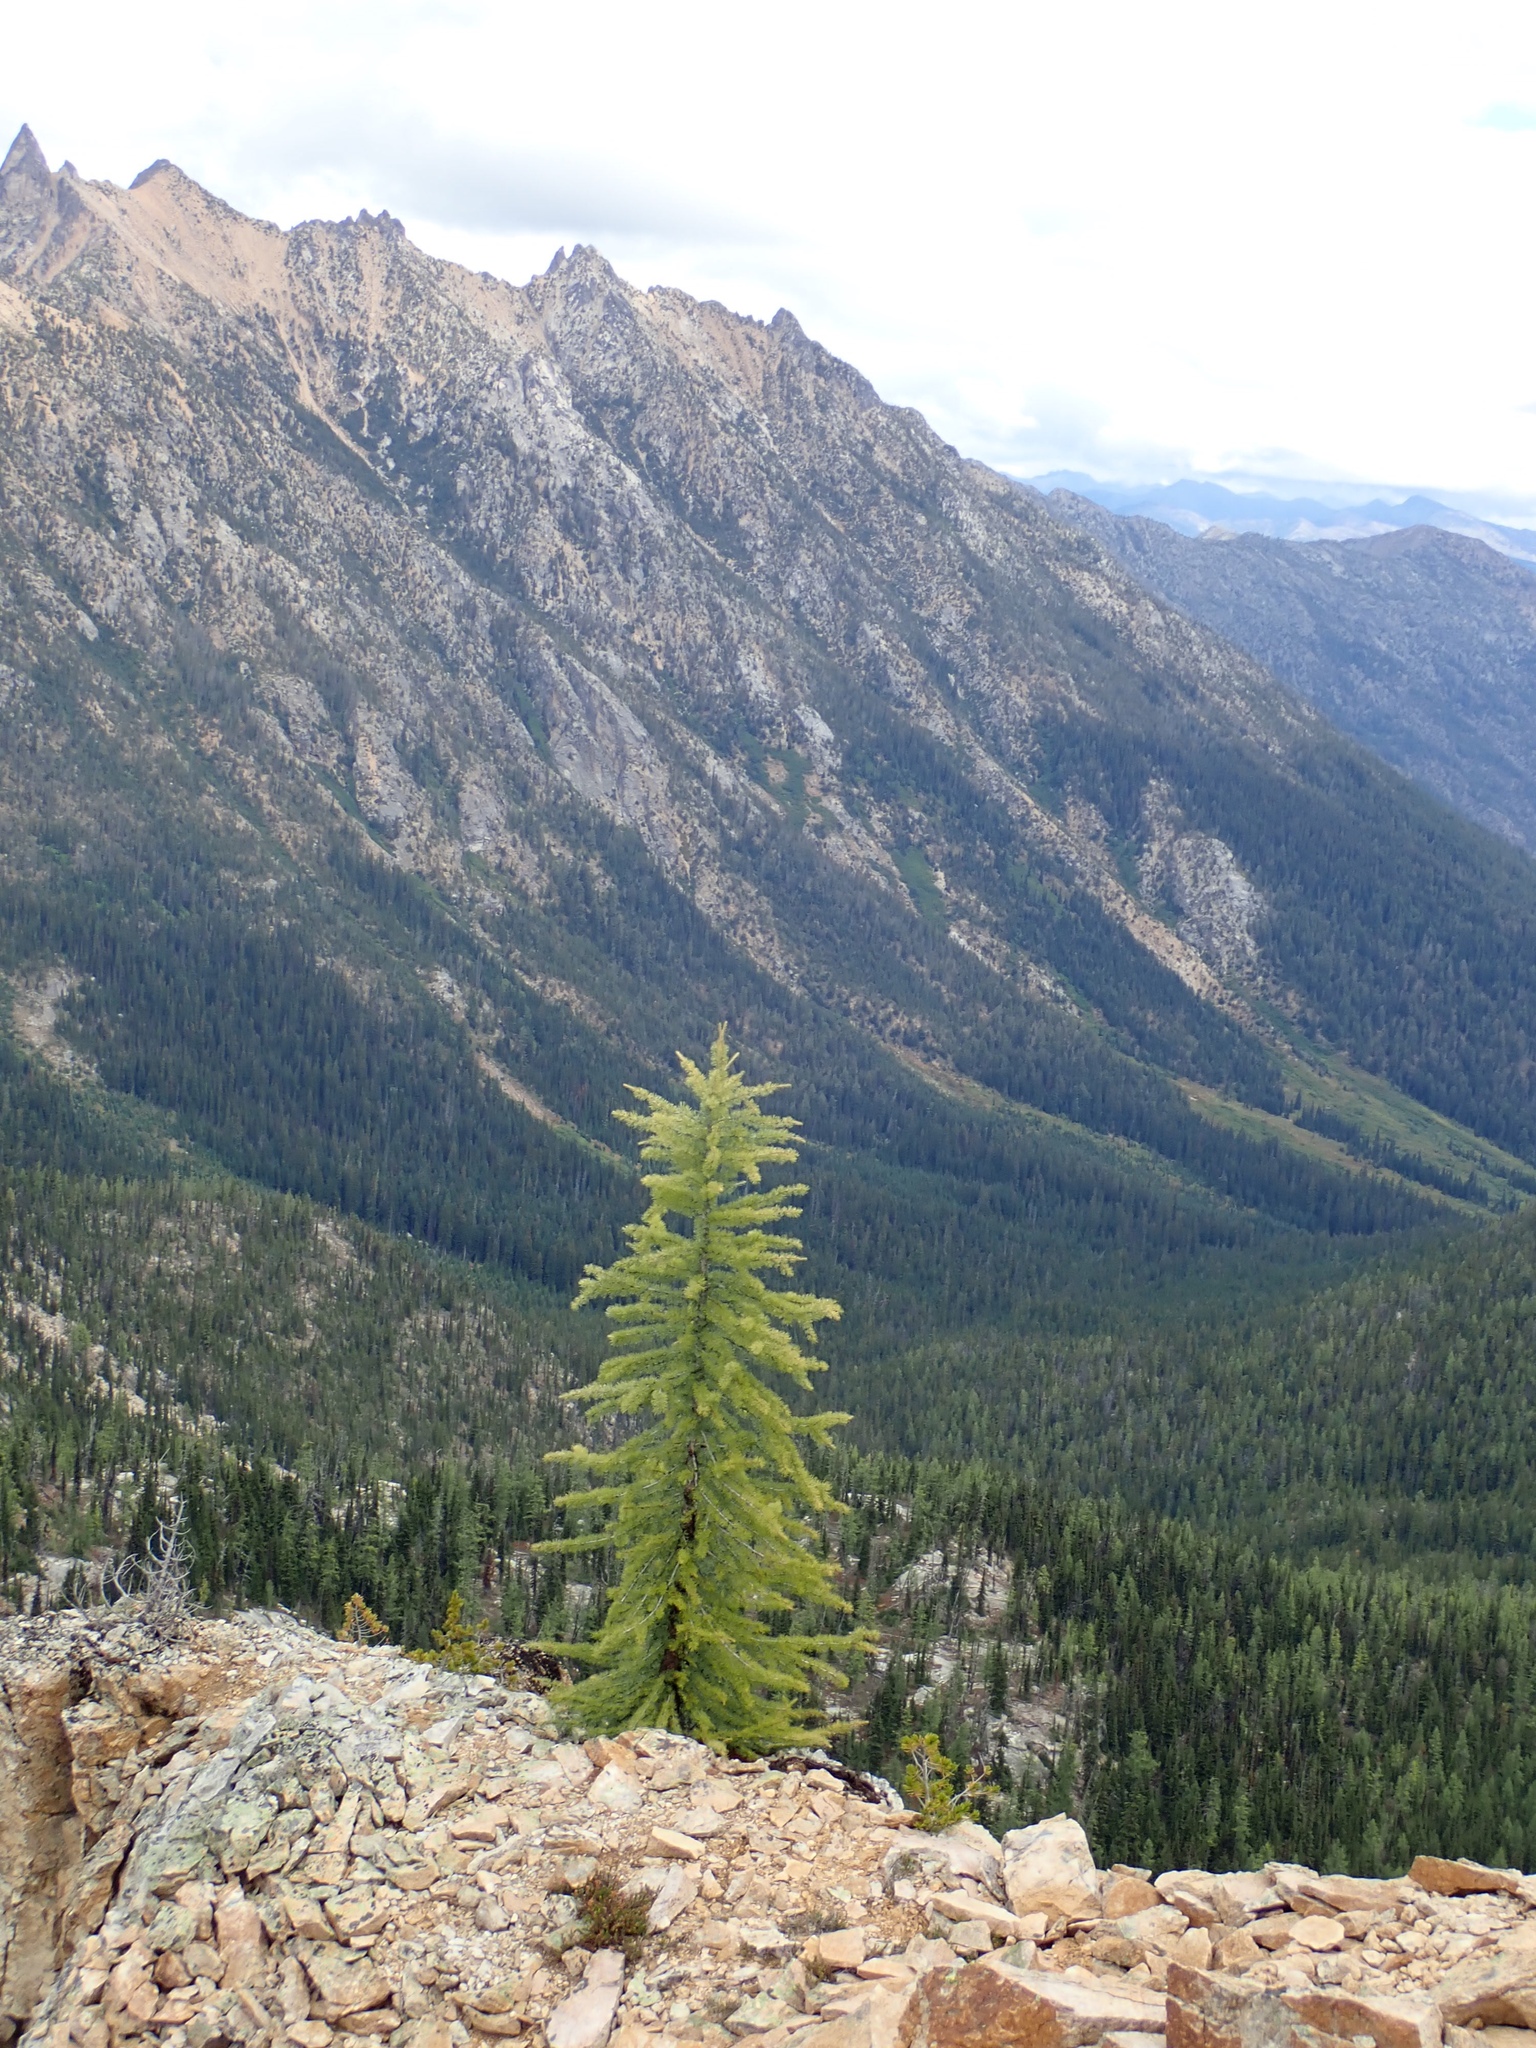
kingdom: Plantae
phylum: Tracheophyta
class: Pinopsida
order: Pinales
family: Pinaceae
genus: Larix
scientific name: Larix lyallii
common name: Alpine larch
